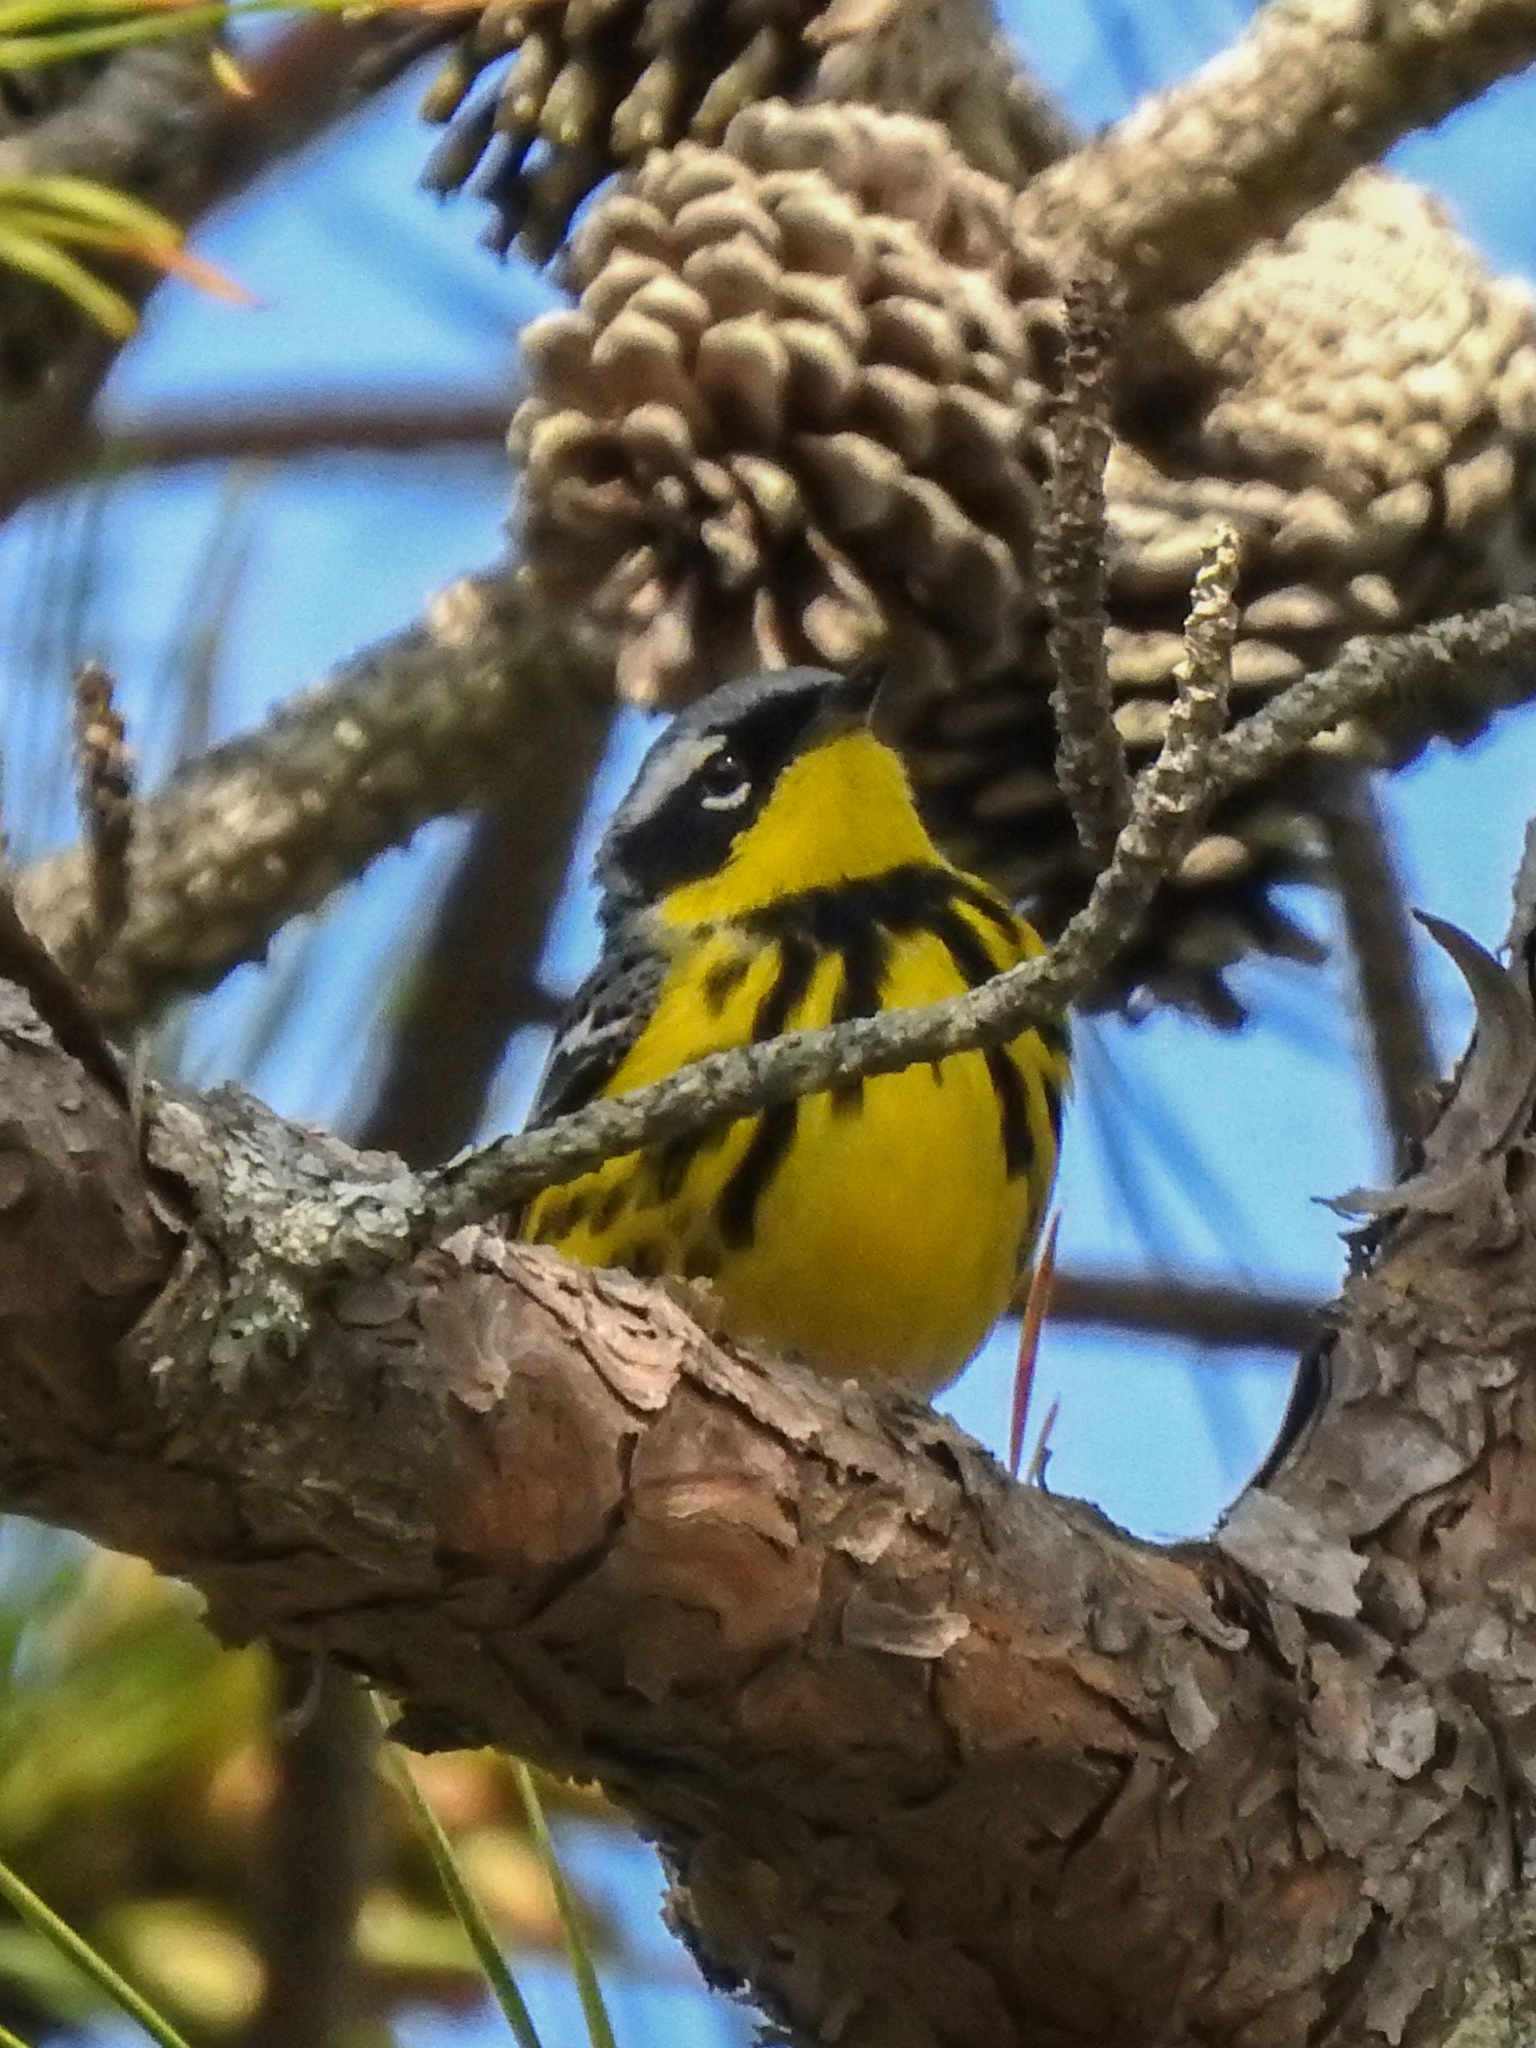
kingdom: Animalia
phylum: Chordata
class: Aves
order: Passeriformes
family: Parulidae
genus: Setophaga
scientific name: Setophaga magnolia
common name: Magnolia warbler
